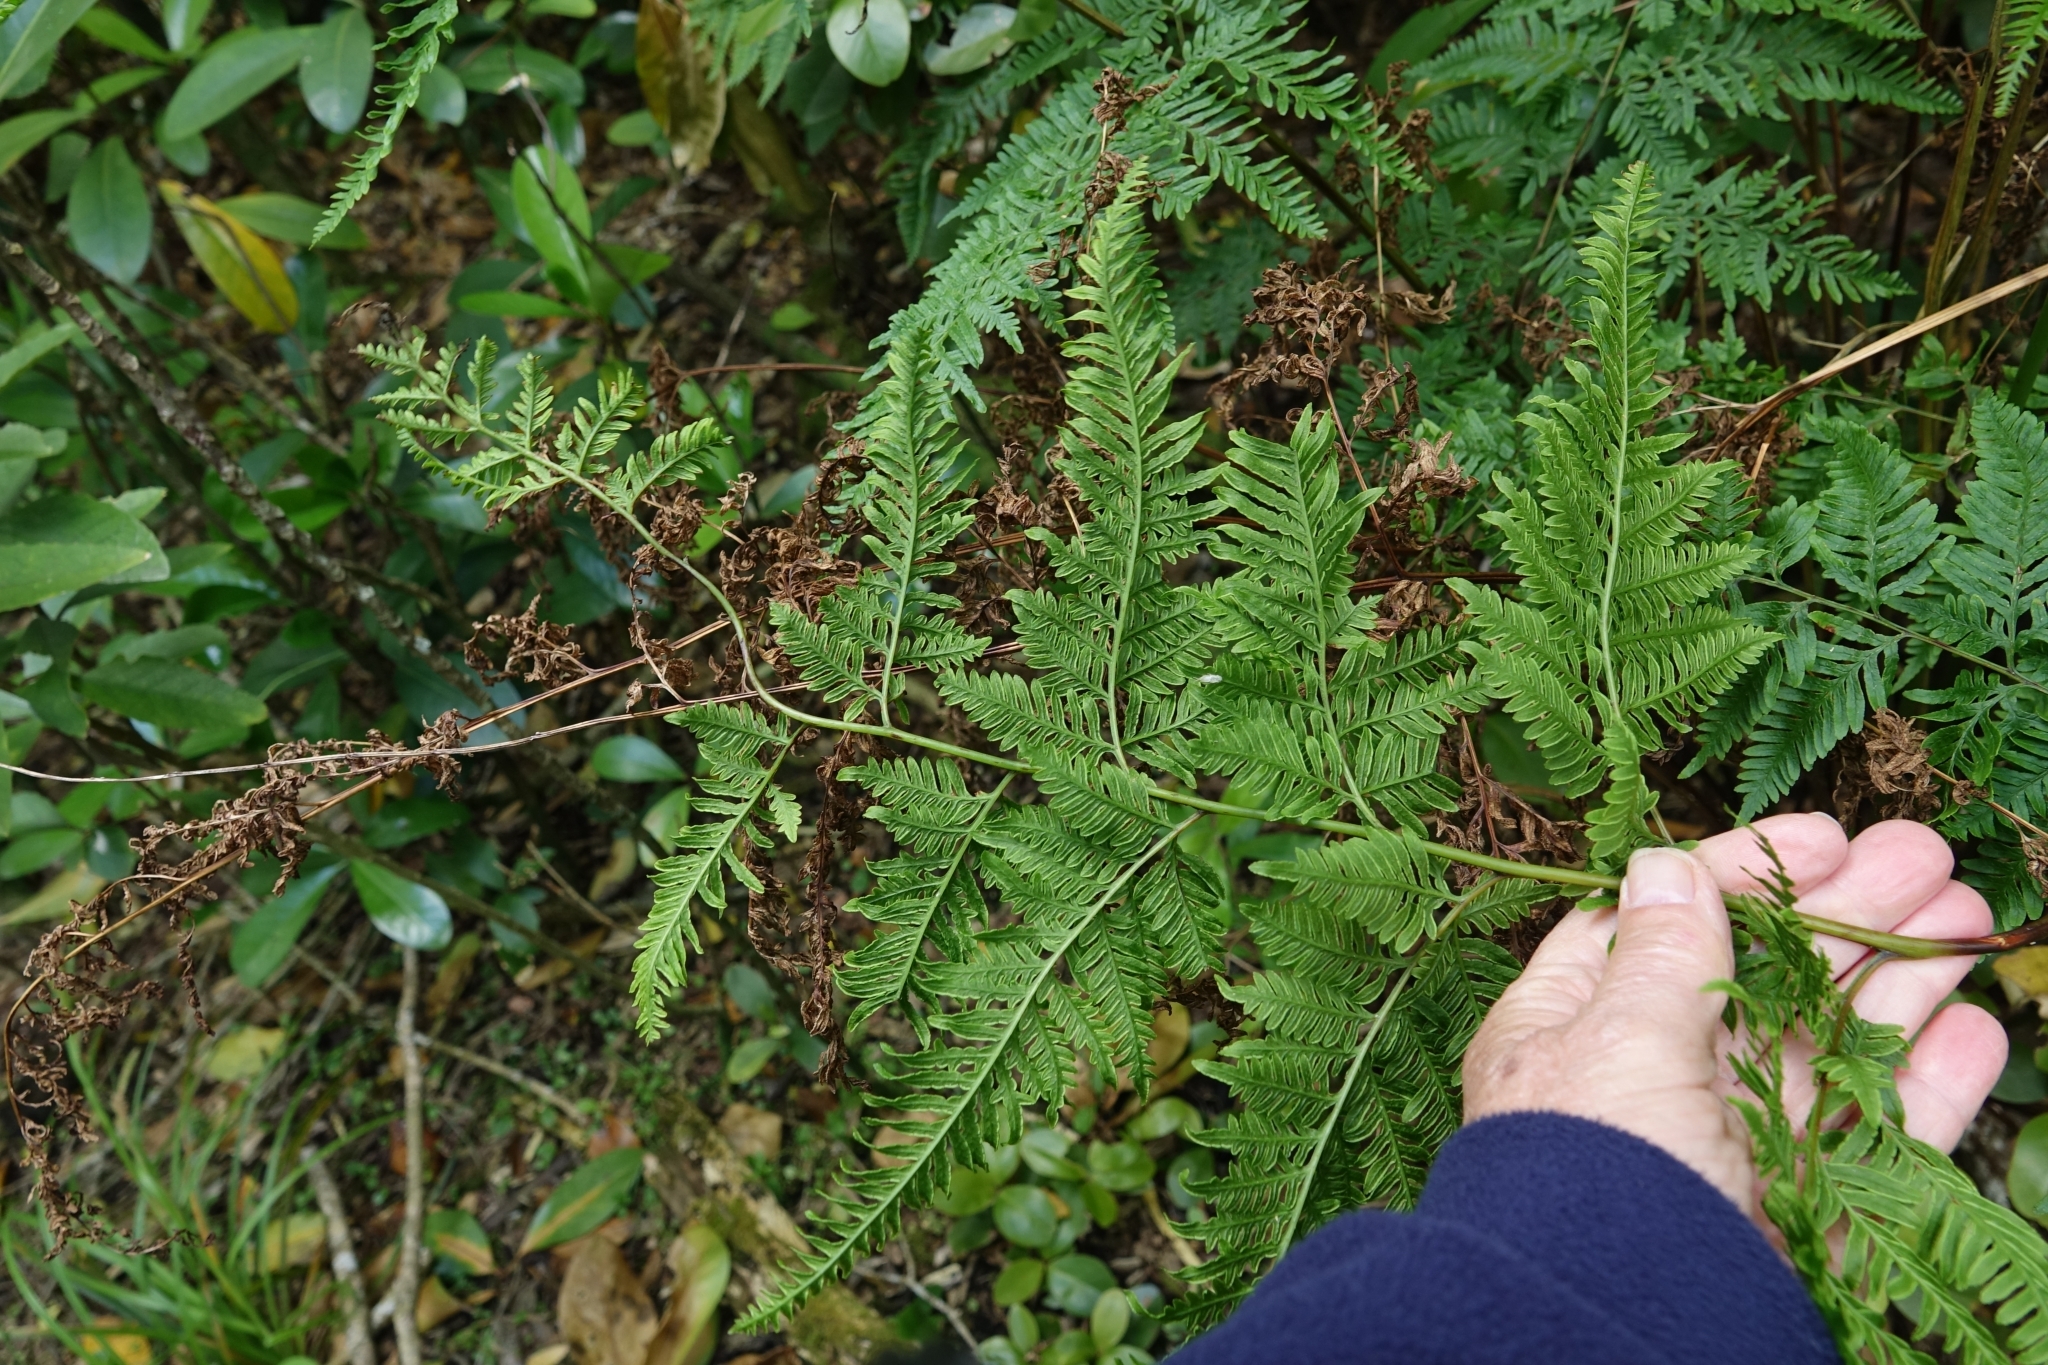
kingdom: Plantae
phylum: Tracheophyta
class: Polypodiopsida
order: Polypodiales
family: Pteridaceae
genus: Pteris
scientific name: Pteris tremula
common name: Australian brake
